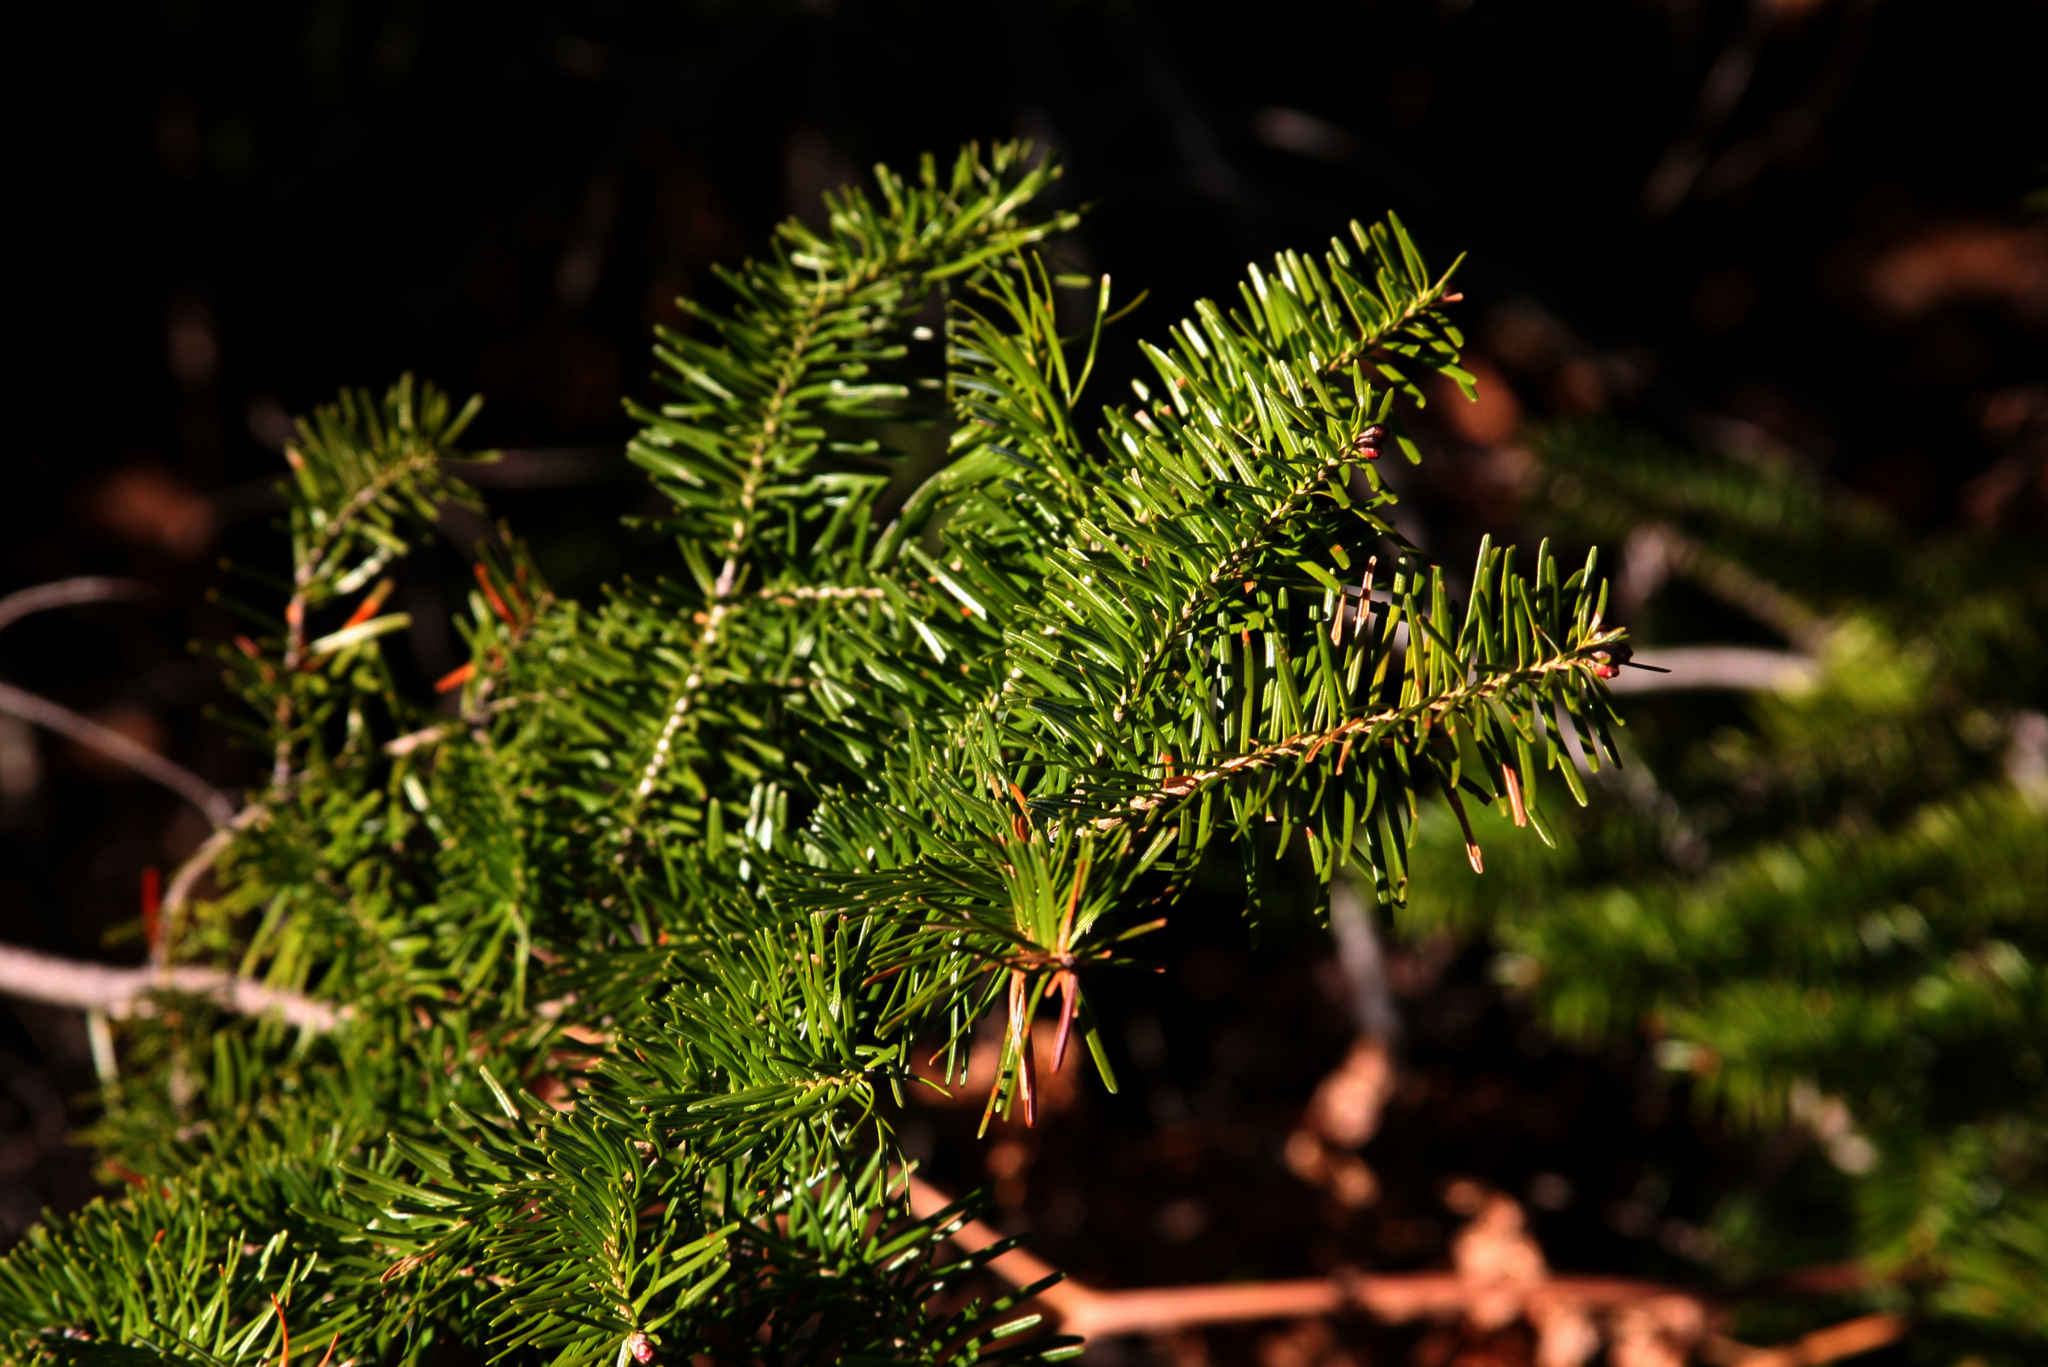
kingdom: Plantae
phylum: Tracheophyta
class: Pinopsida
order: Pinales
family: Pinaceae
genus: Abies
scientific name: Abies balsamea
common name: Balsam fir
